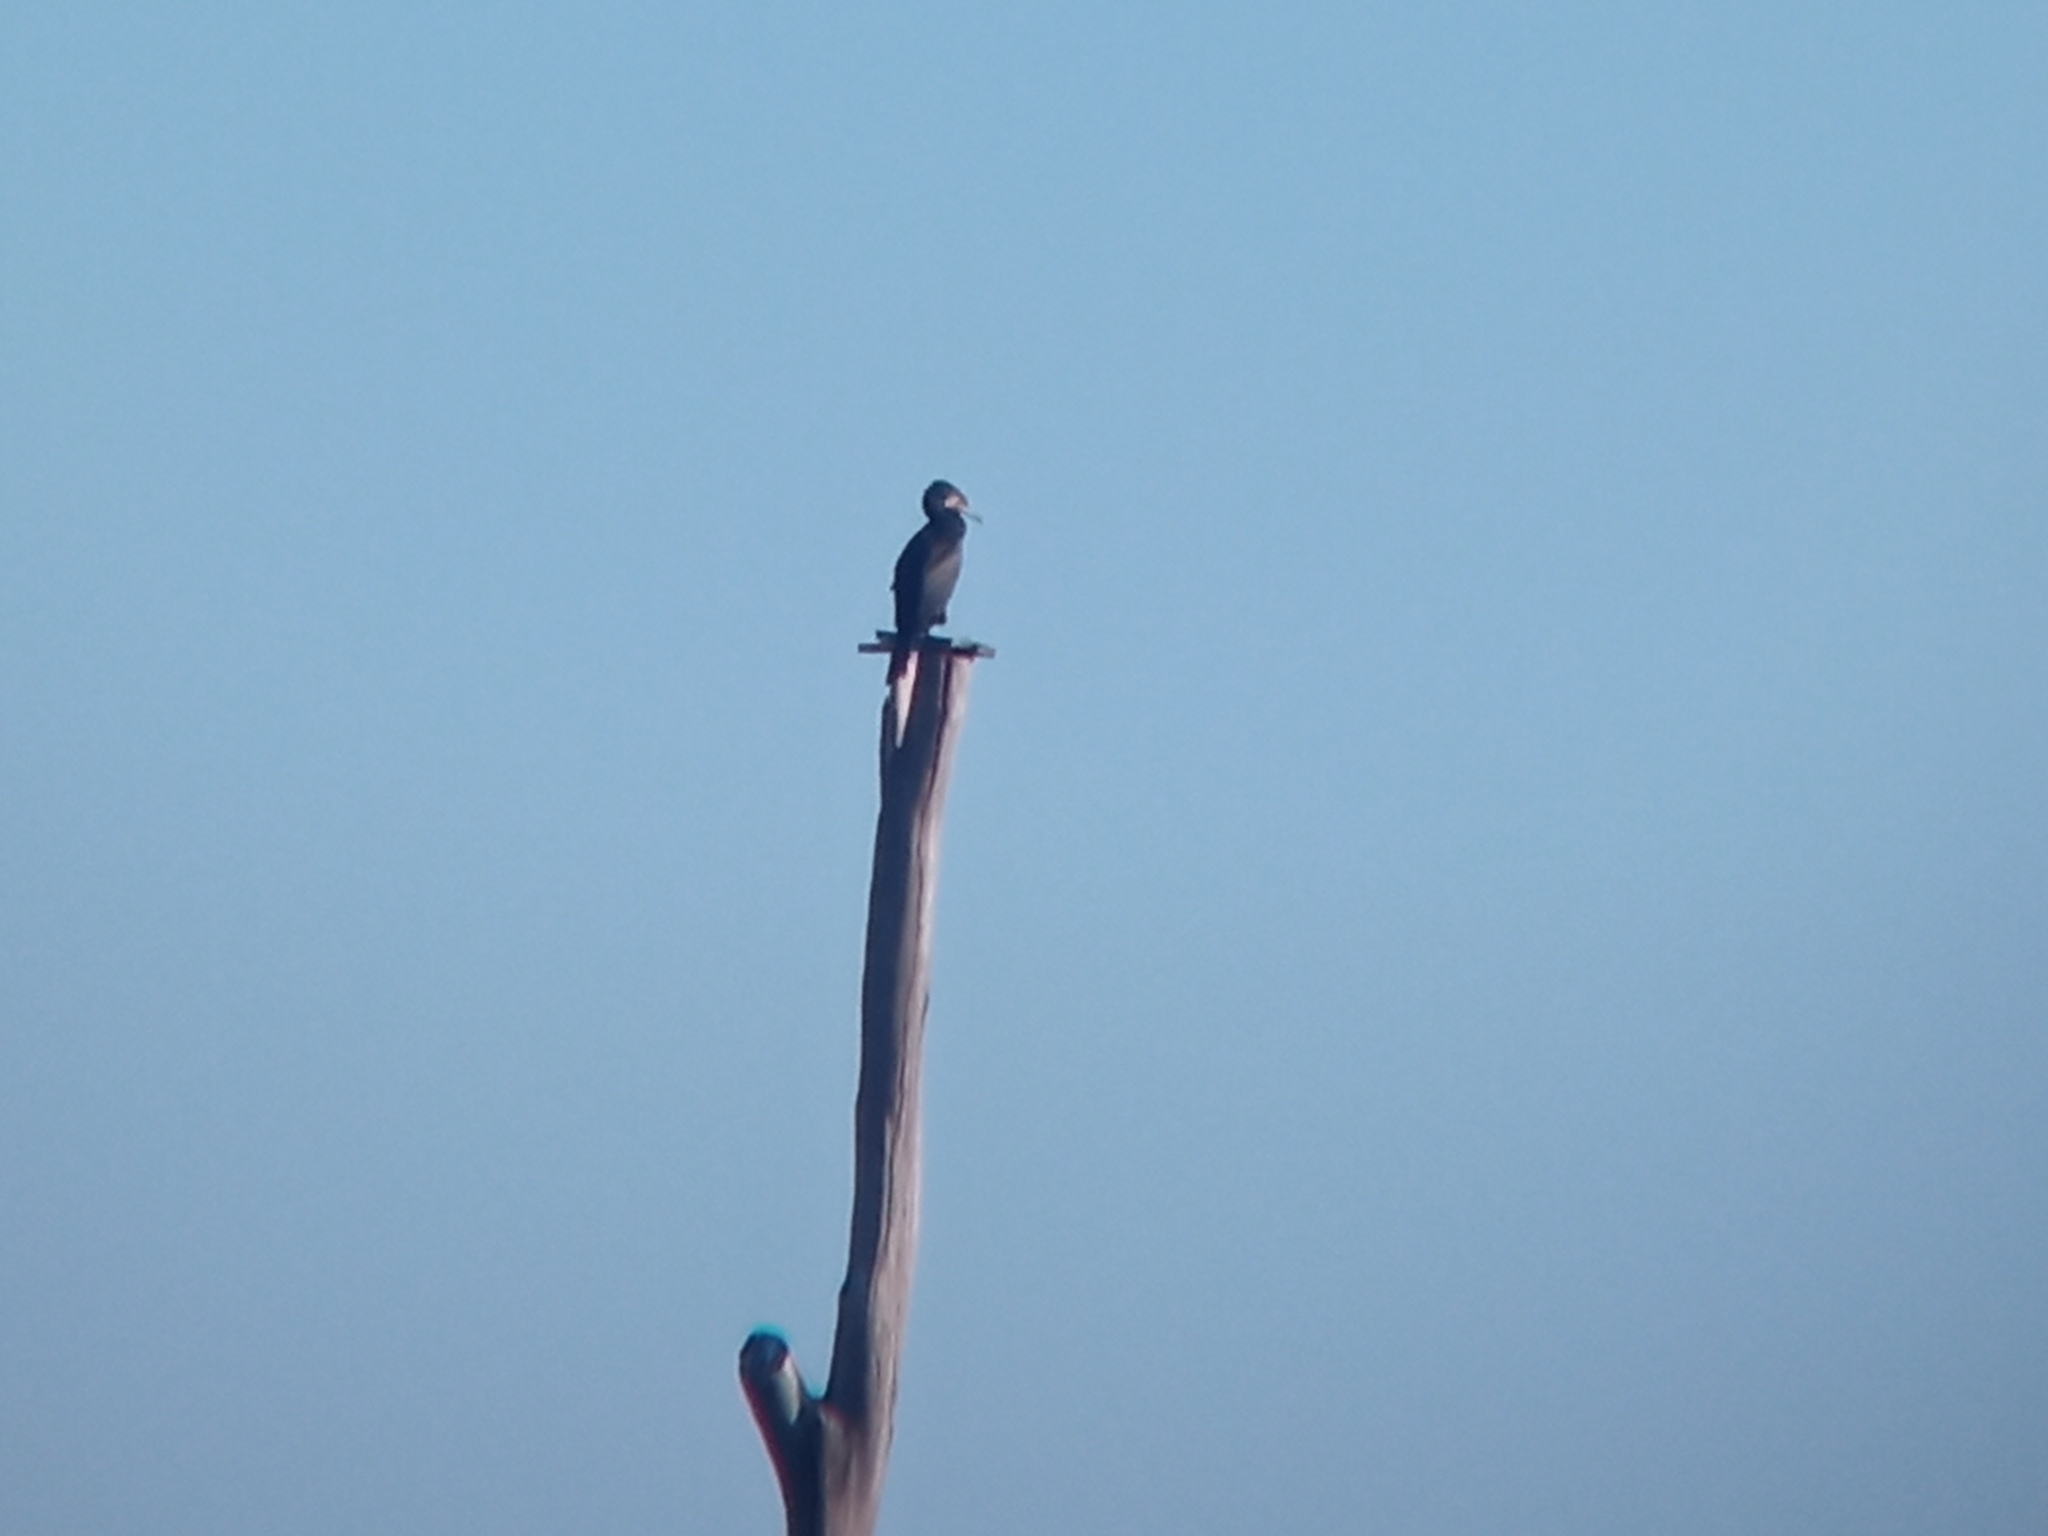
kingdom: Animalia
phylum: Chordata
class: Aves
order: Suliformes
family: Phalacrocoracidae
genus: Phalacrocorax
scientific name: Phalacrocorax carbo
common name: Great cormorant
